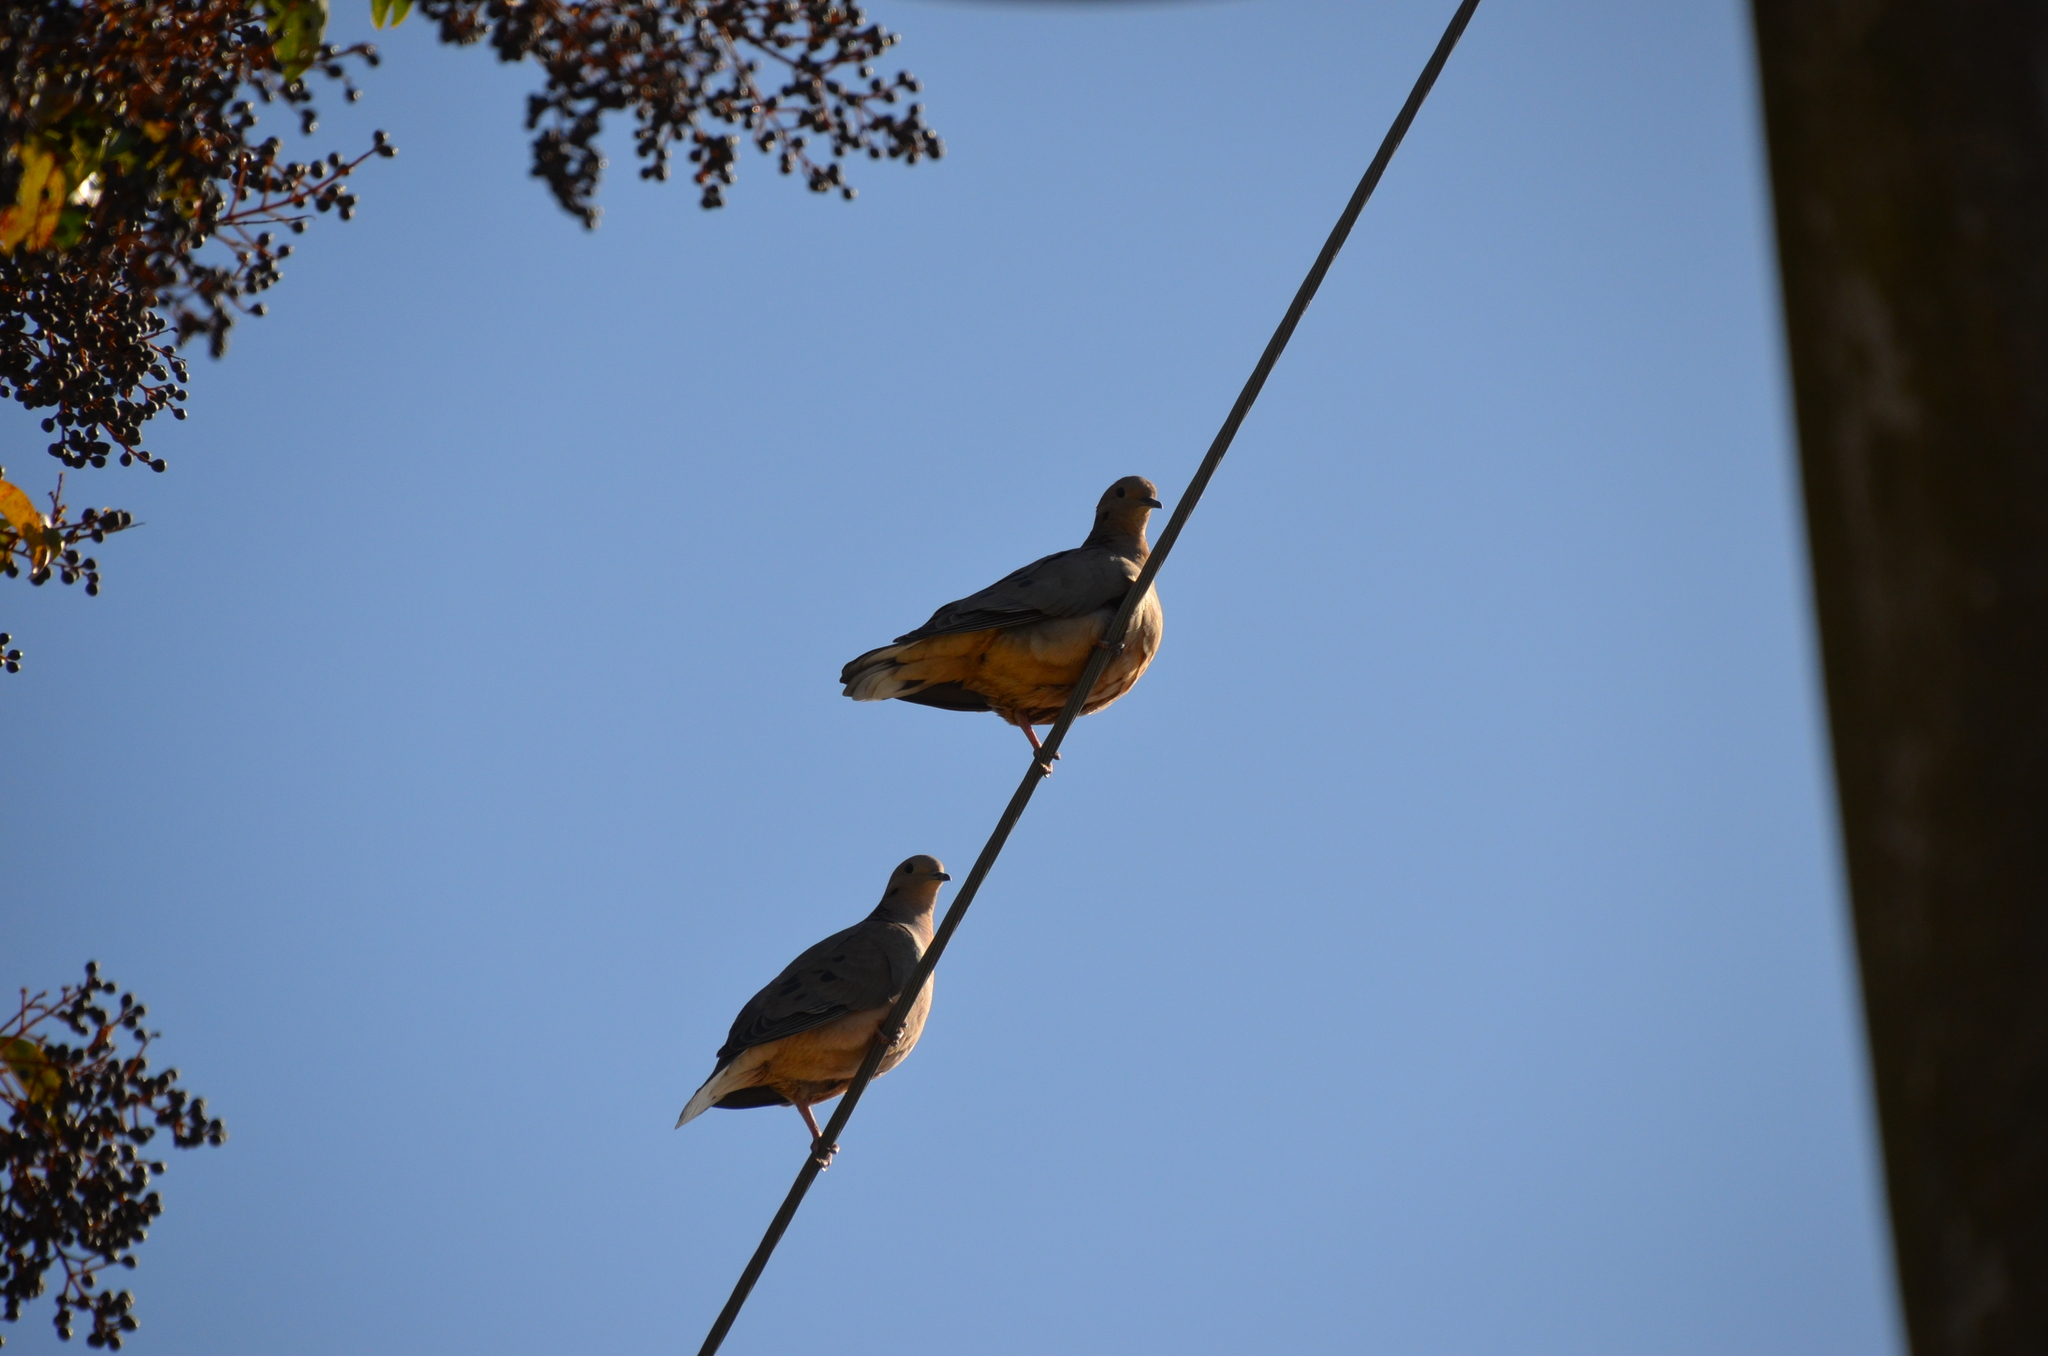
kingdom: Animalia
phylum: Chordata
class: Aves
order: Columbiformes
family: Columbidae
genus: Zenaida
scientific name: Zenaida auriculata
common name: Eared dove
